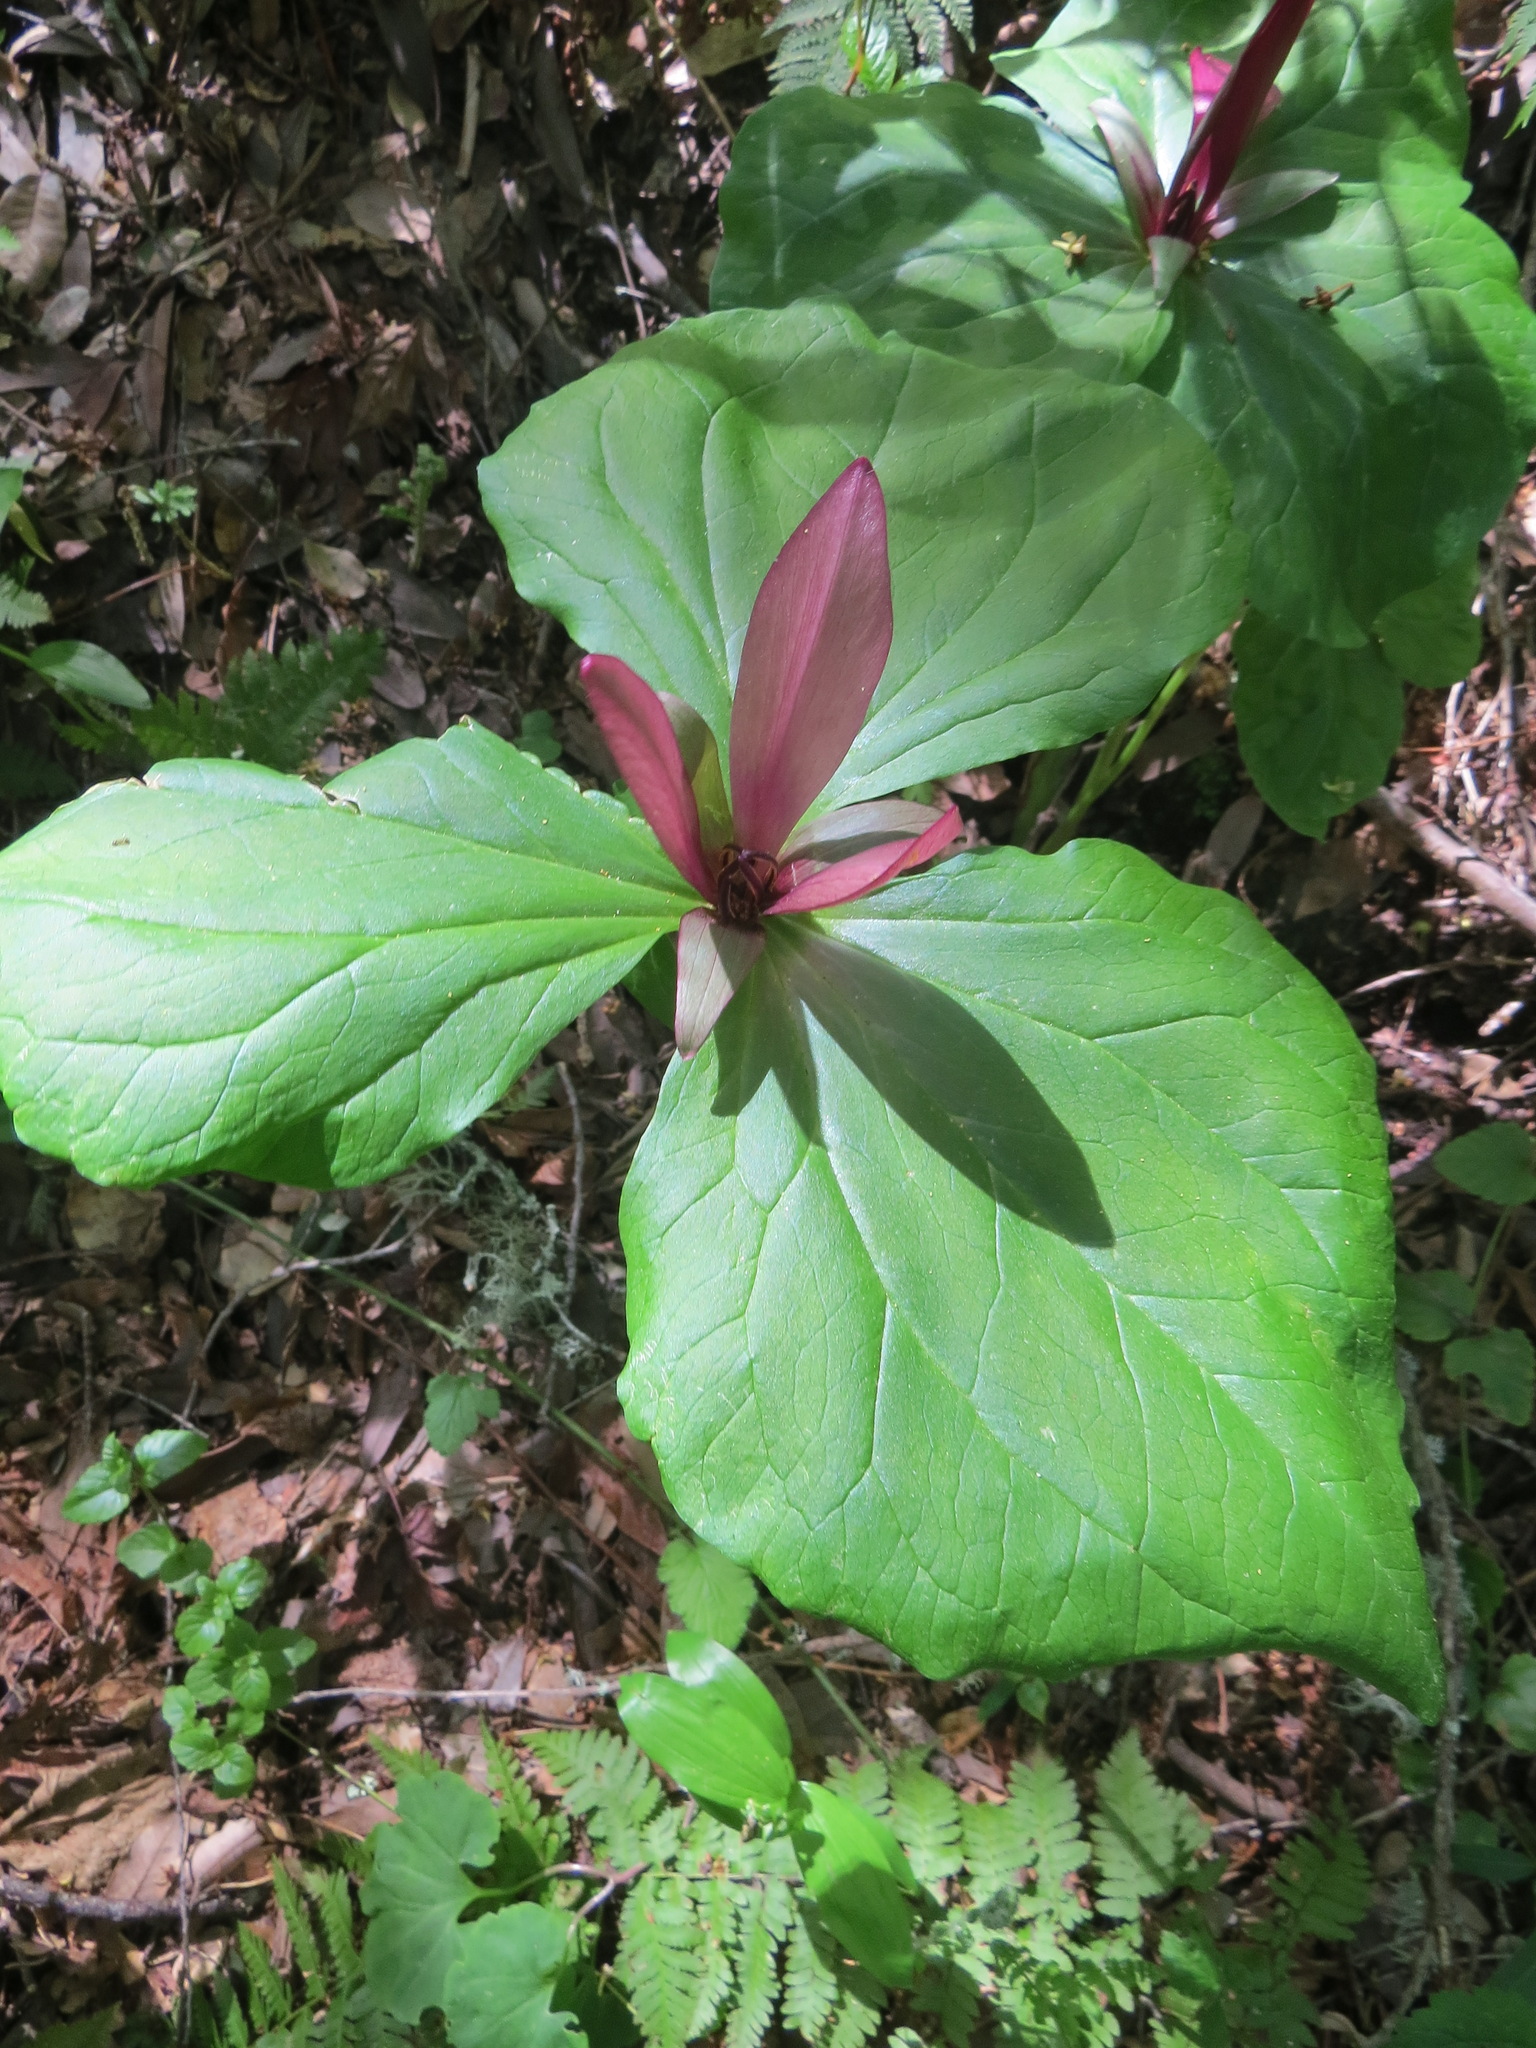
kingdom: Plantae
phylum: Tracheophyta
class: Liliopsida
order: Liliales
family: Melanthiaceae
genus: Trillium
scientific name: Trillium chloropetalum
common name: Giant trillium
